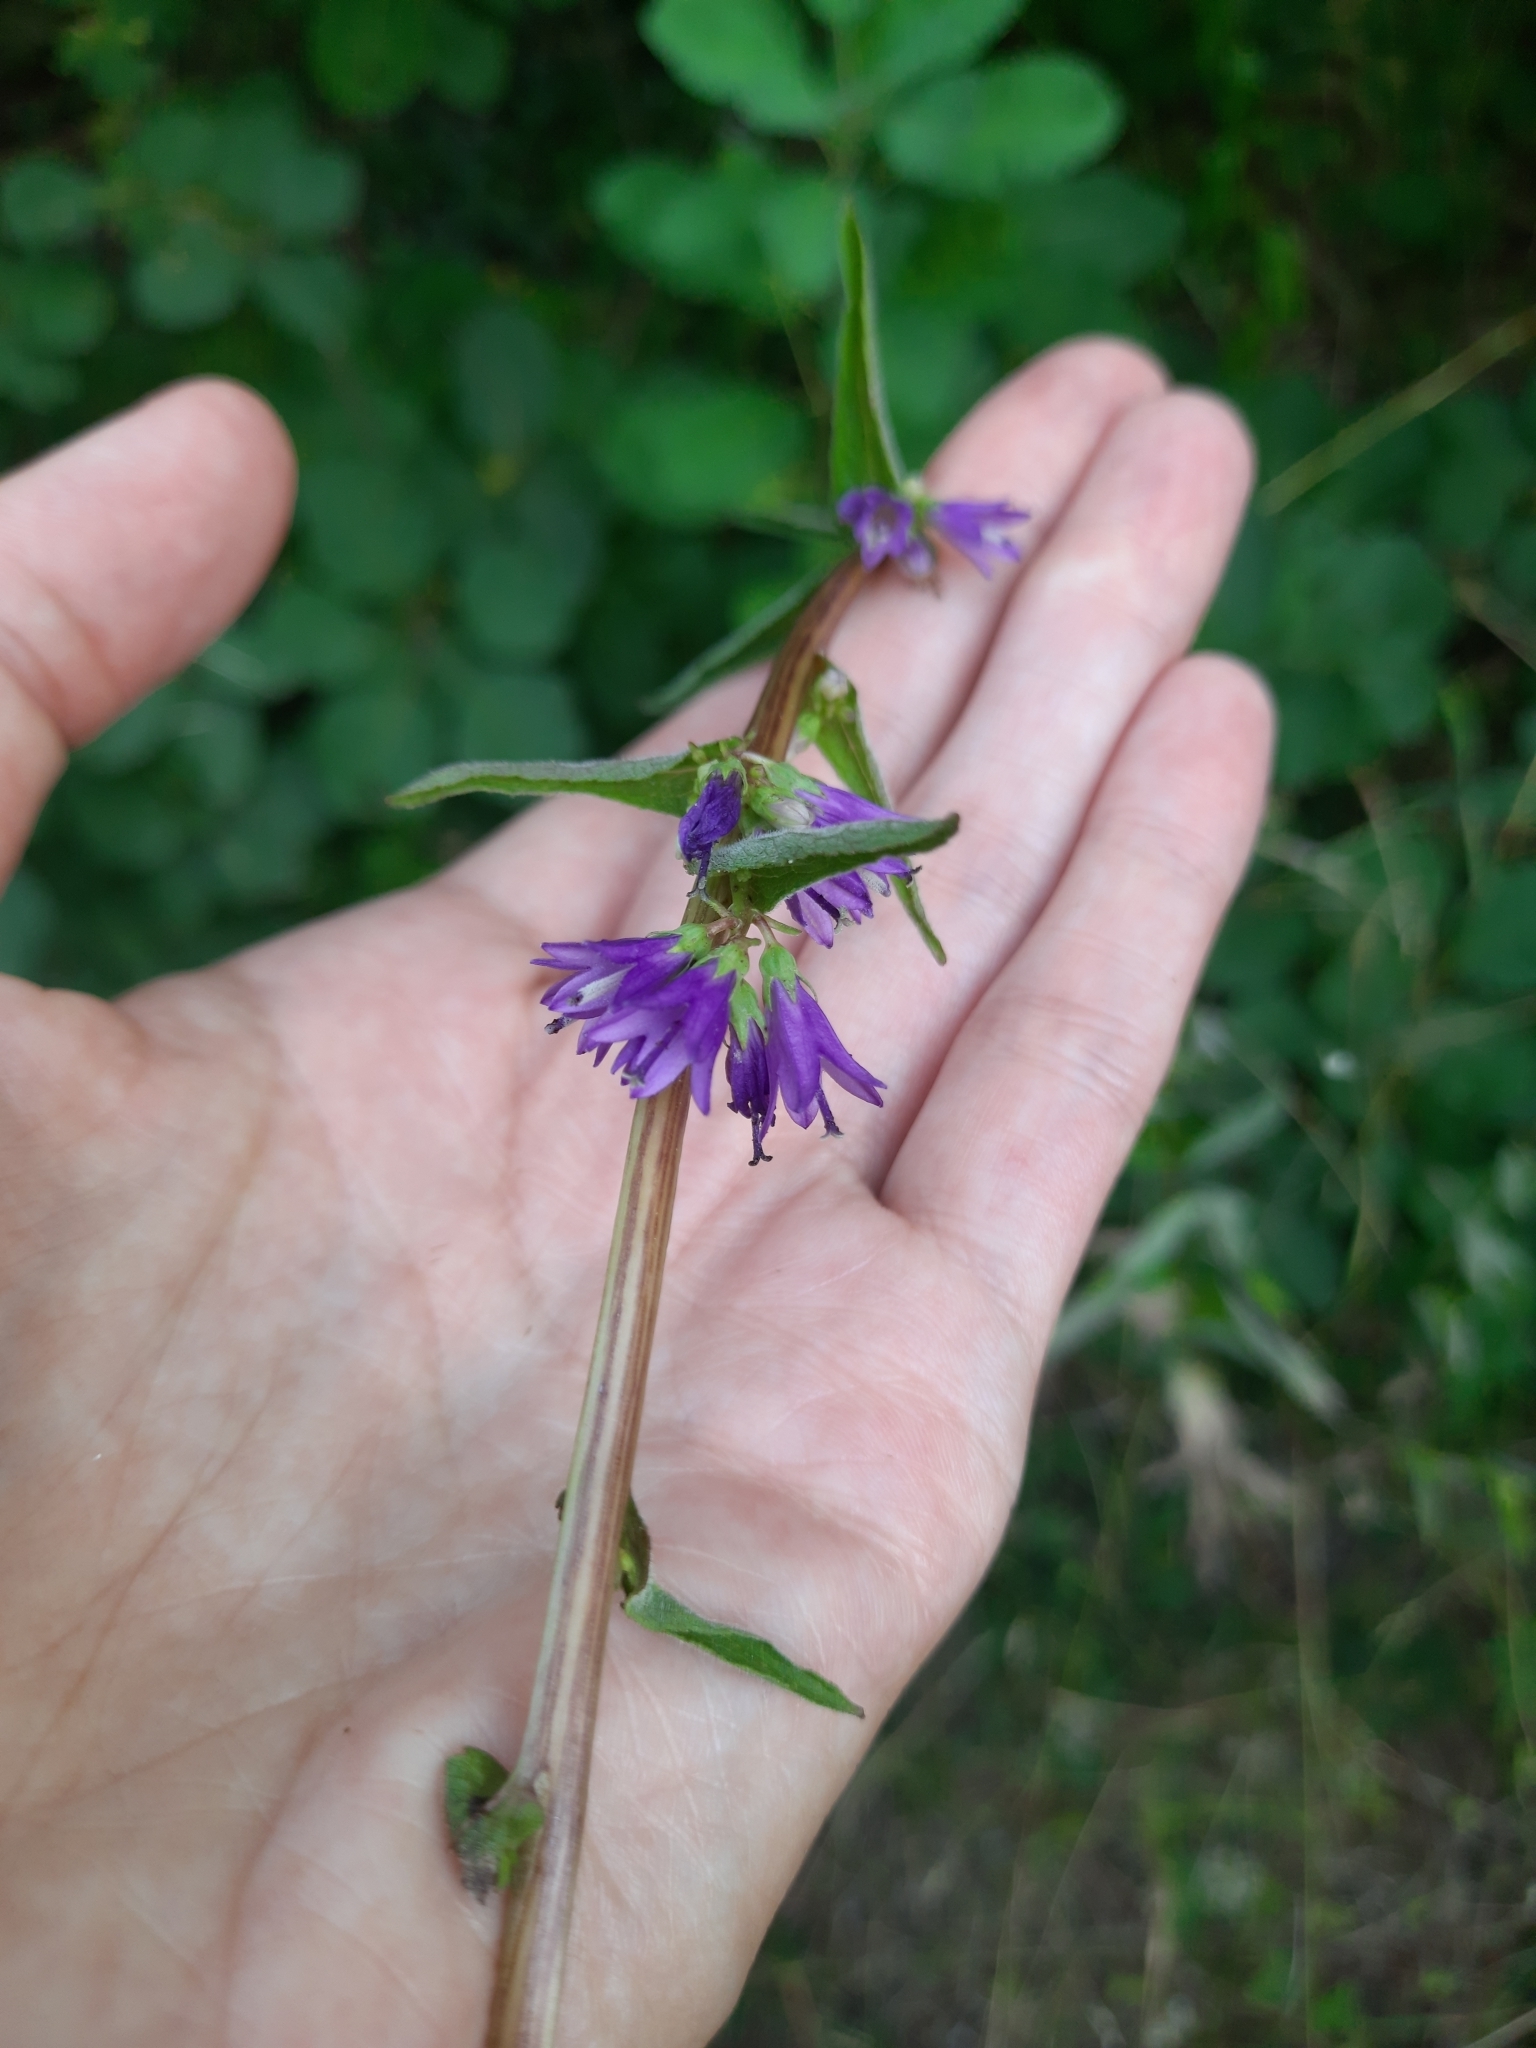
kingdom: Plantae
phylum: Tracheophyta
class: Magnoliopsida
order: Asterales
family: Campanulaceae
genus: Campanula
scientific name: Campanula glomerata
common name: Clustered bellflower
